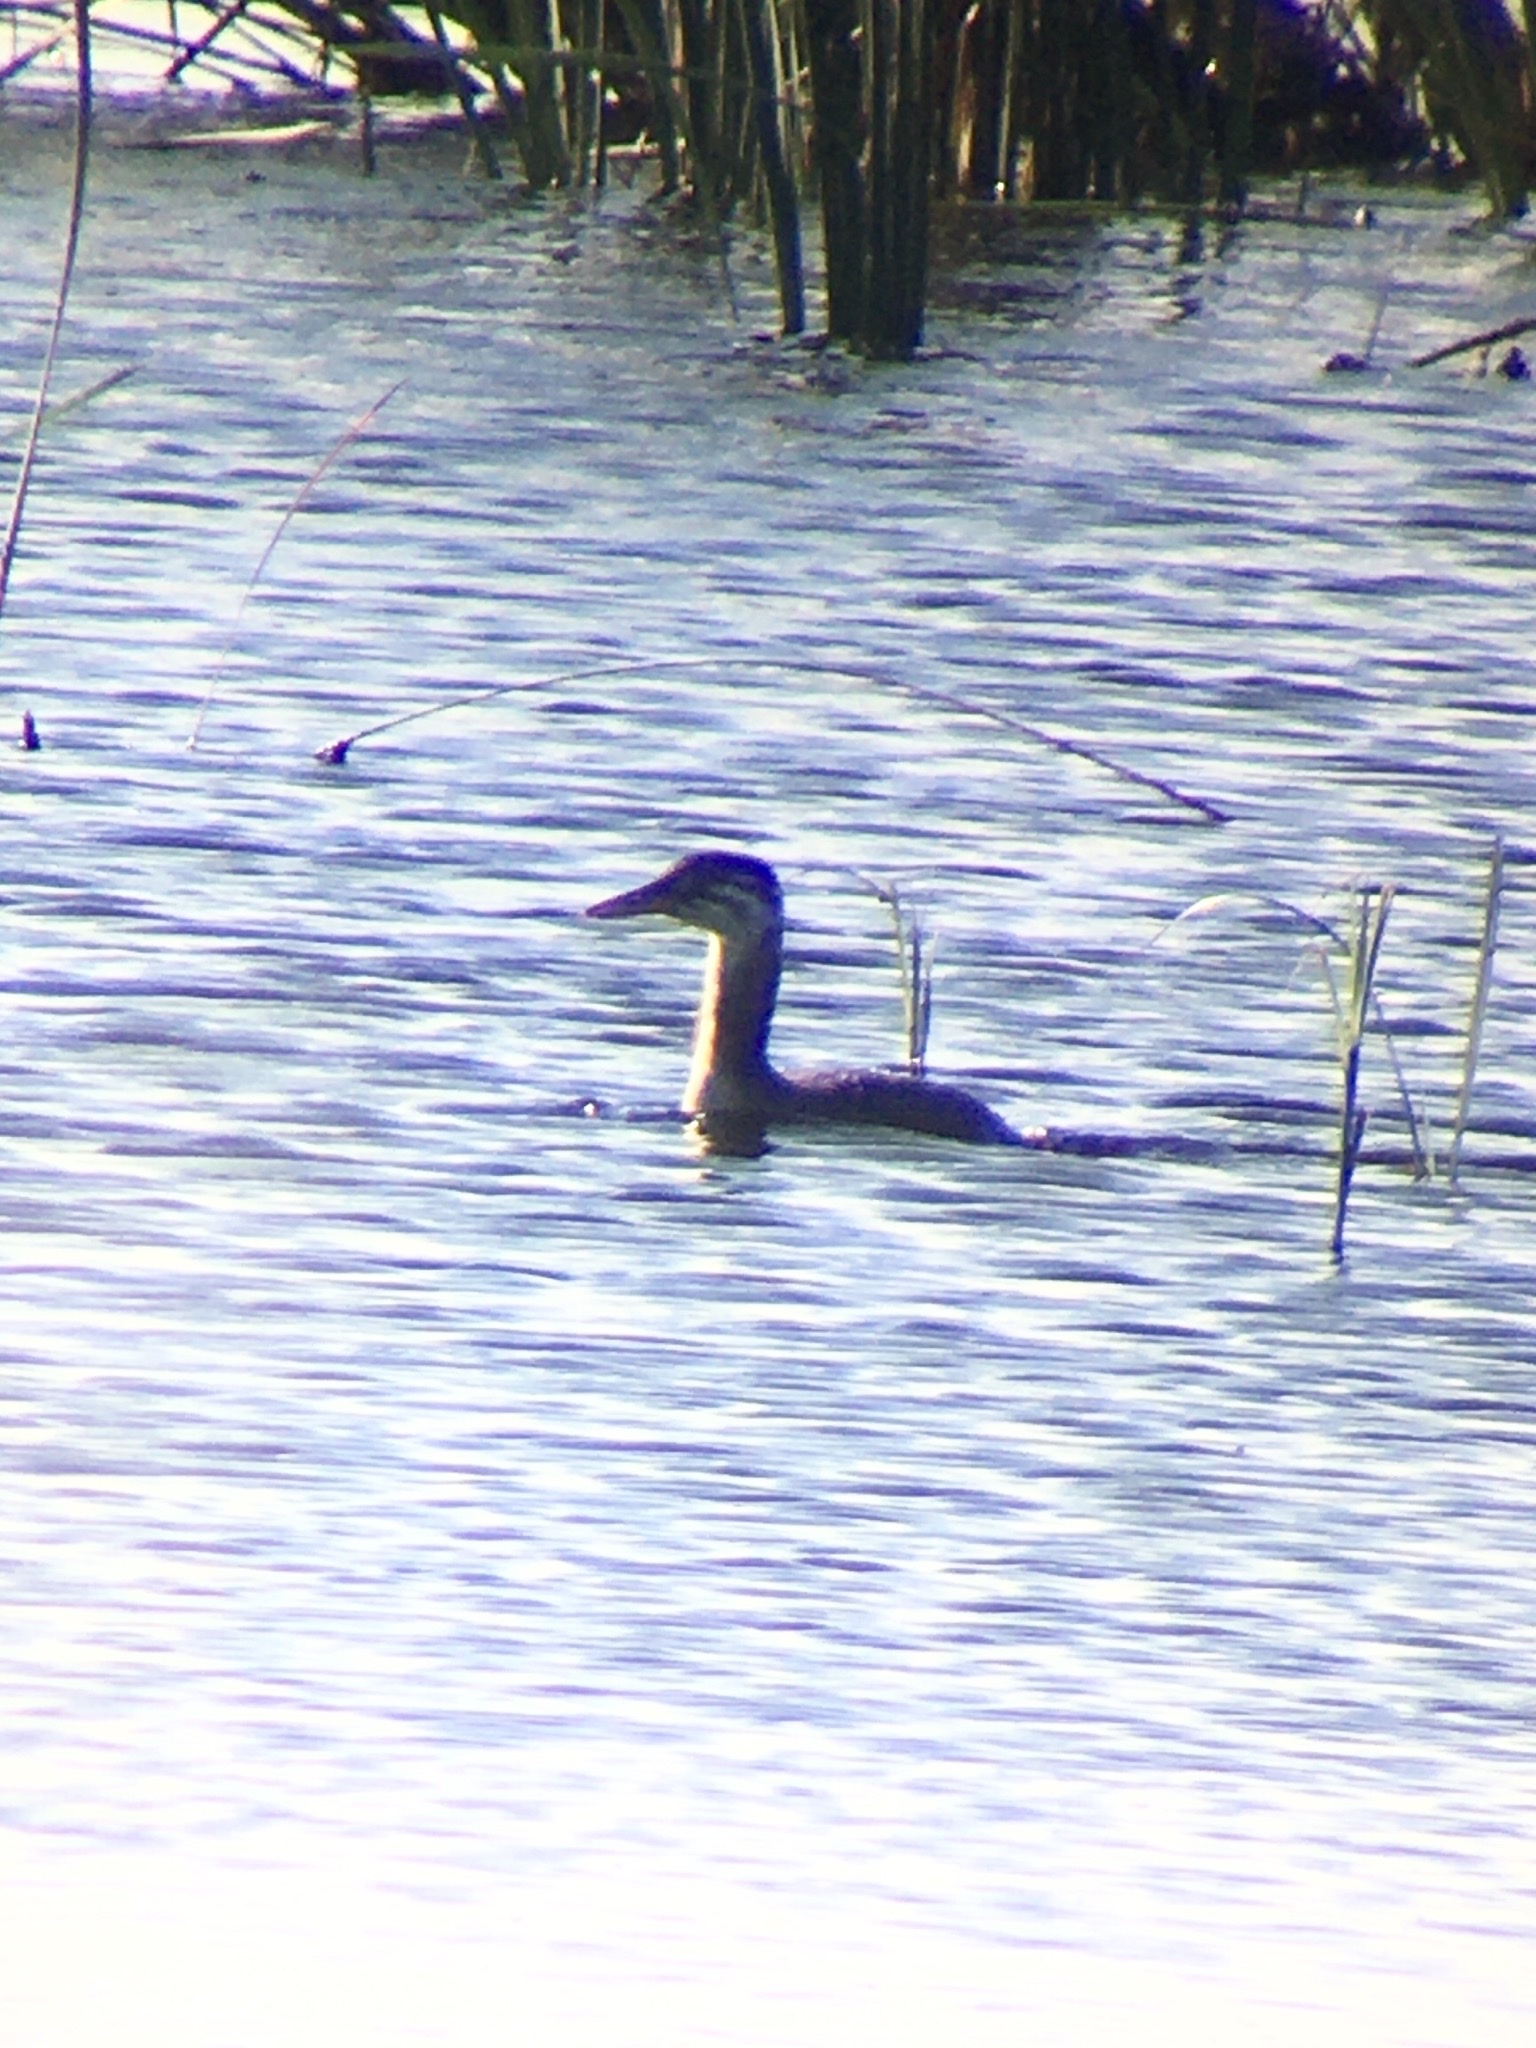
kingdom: Animalia
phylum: Chordata
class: Aves
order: Podicipediformes
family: Podicipedidae
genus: Podiceps
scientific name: Podiceps grisegena
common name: Red-necked grebe
